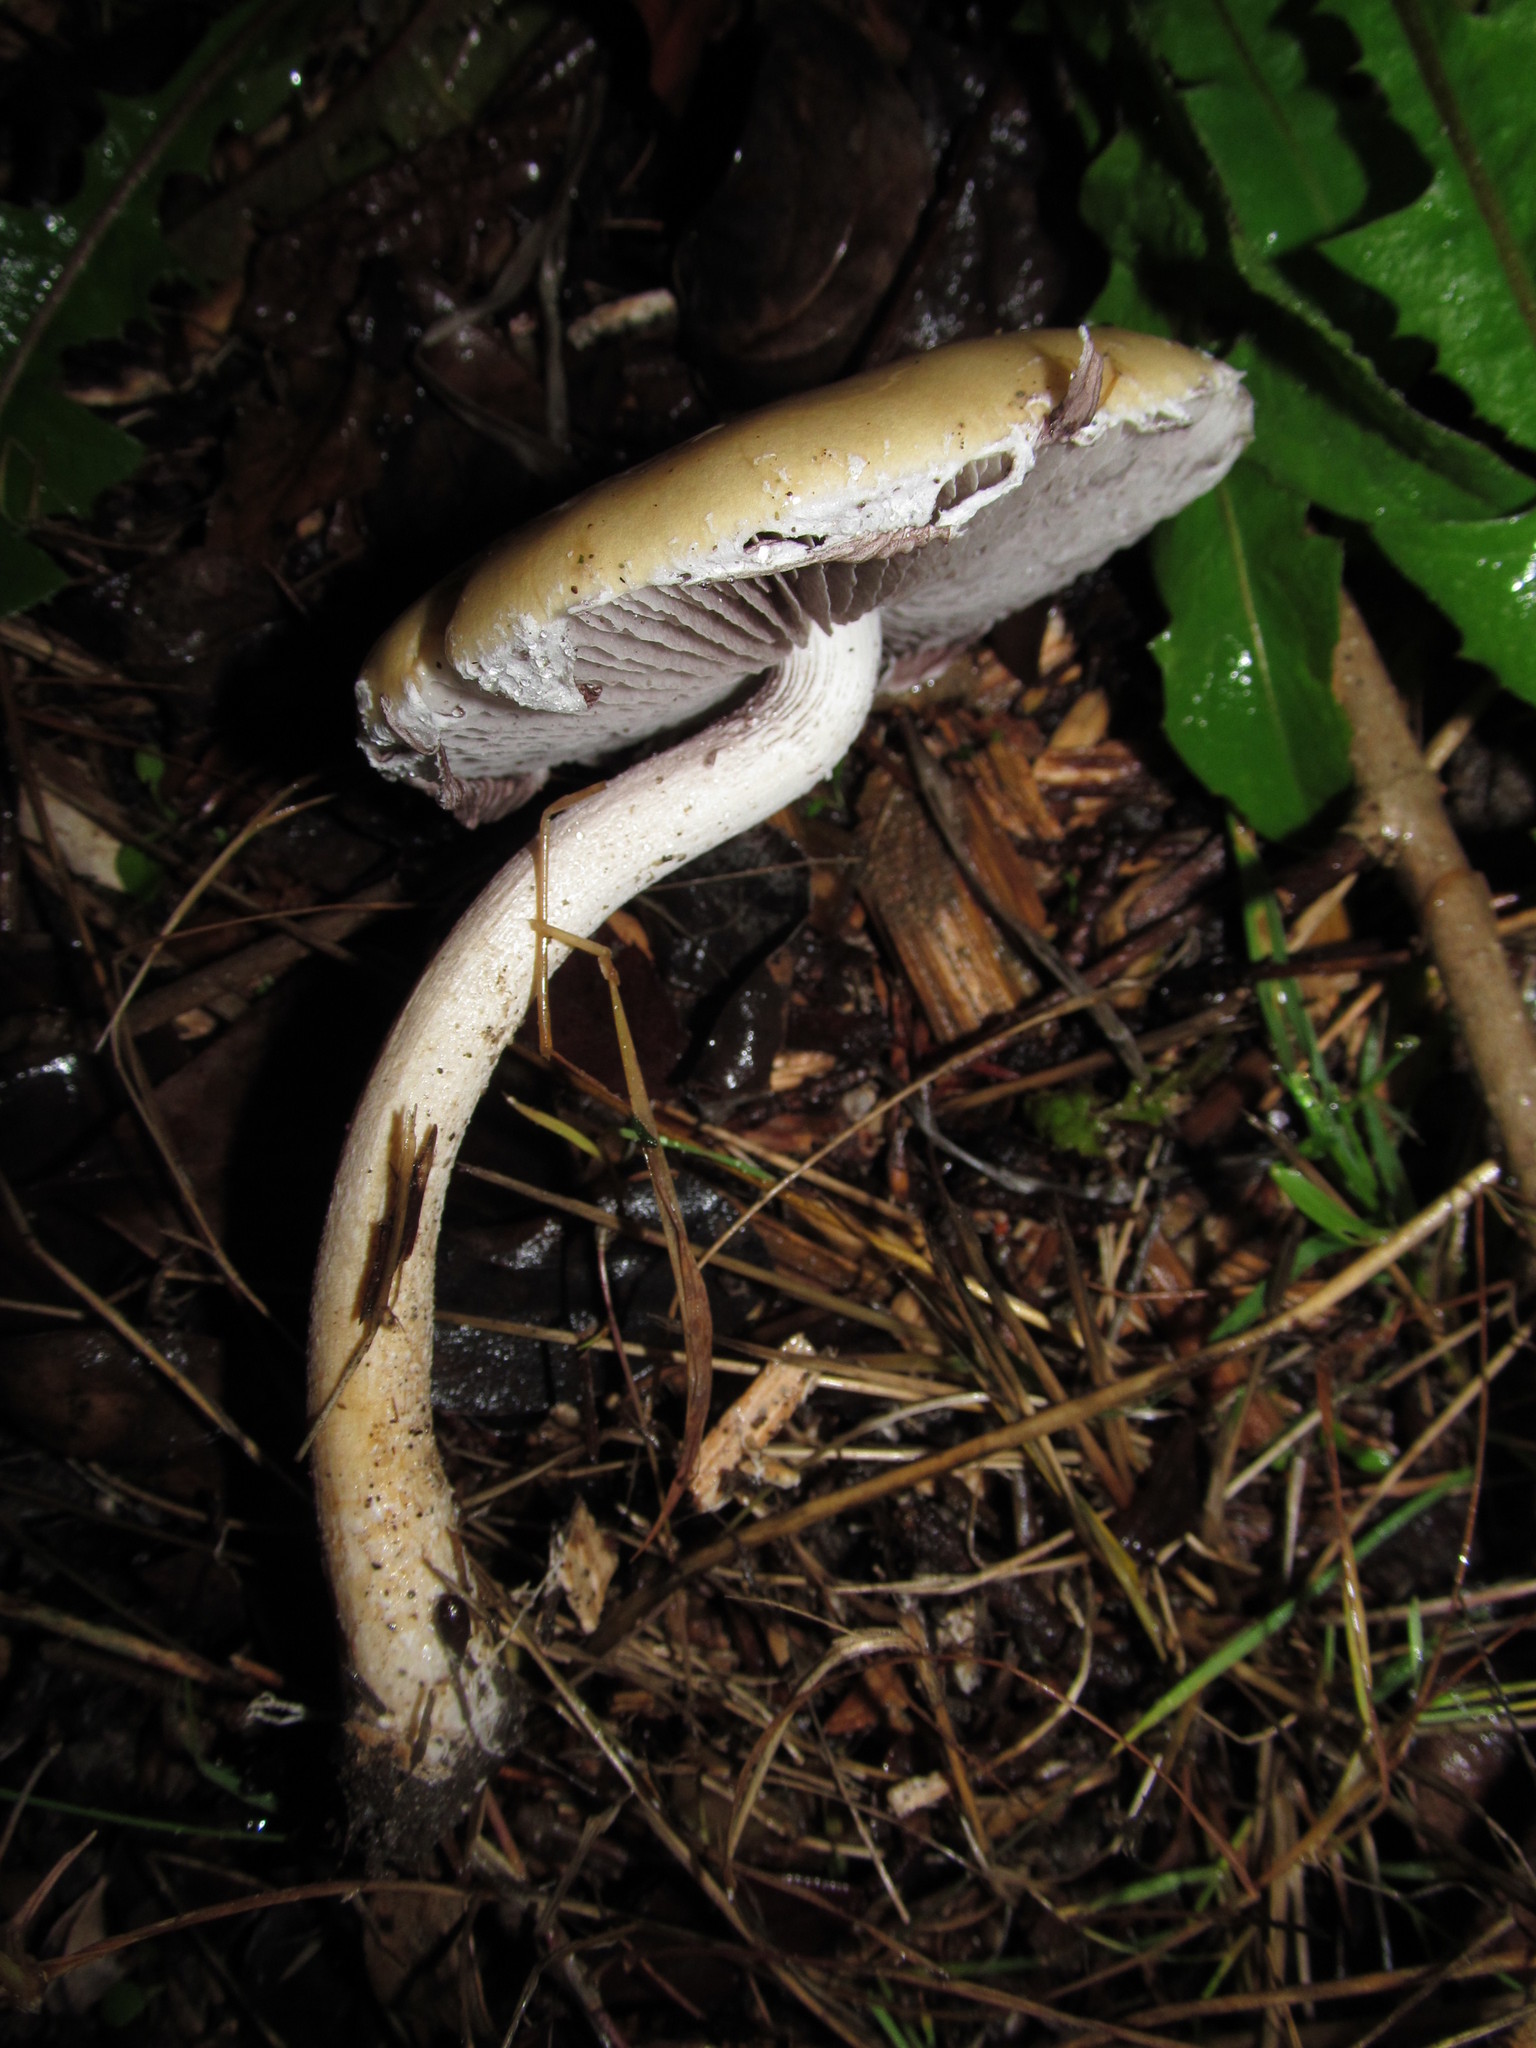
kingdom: Fungi
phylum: Basidiomycota
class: Agaricomycetes
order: Agaricales
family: Strophariaceae
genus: Stropharia
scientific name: Stropharia ambigua
